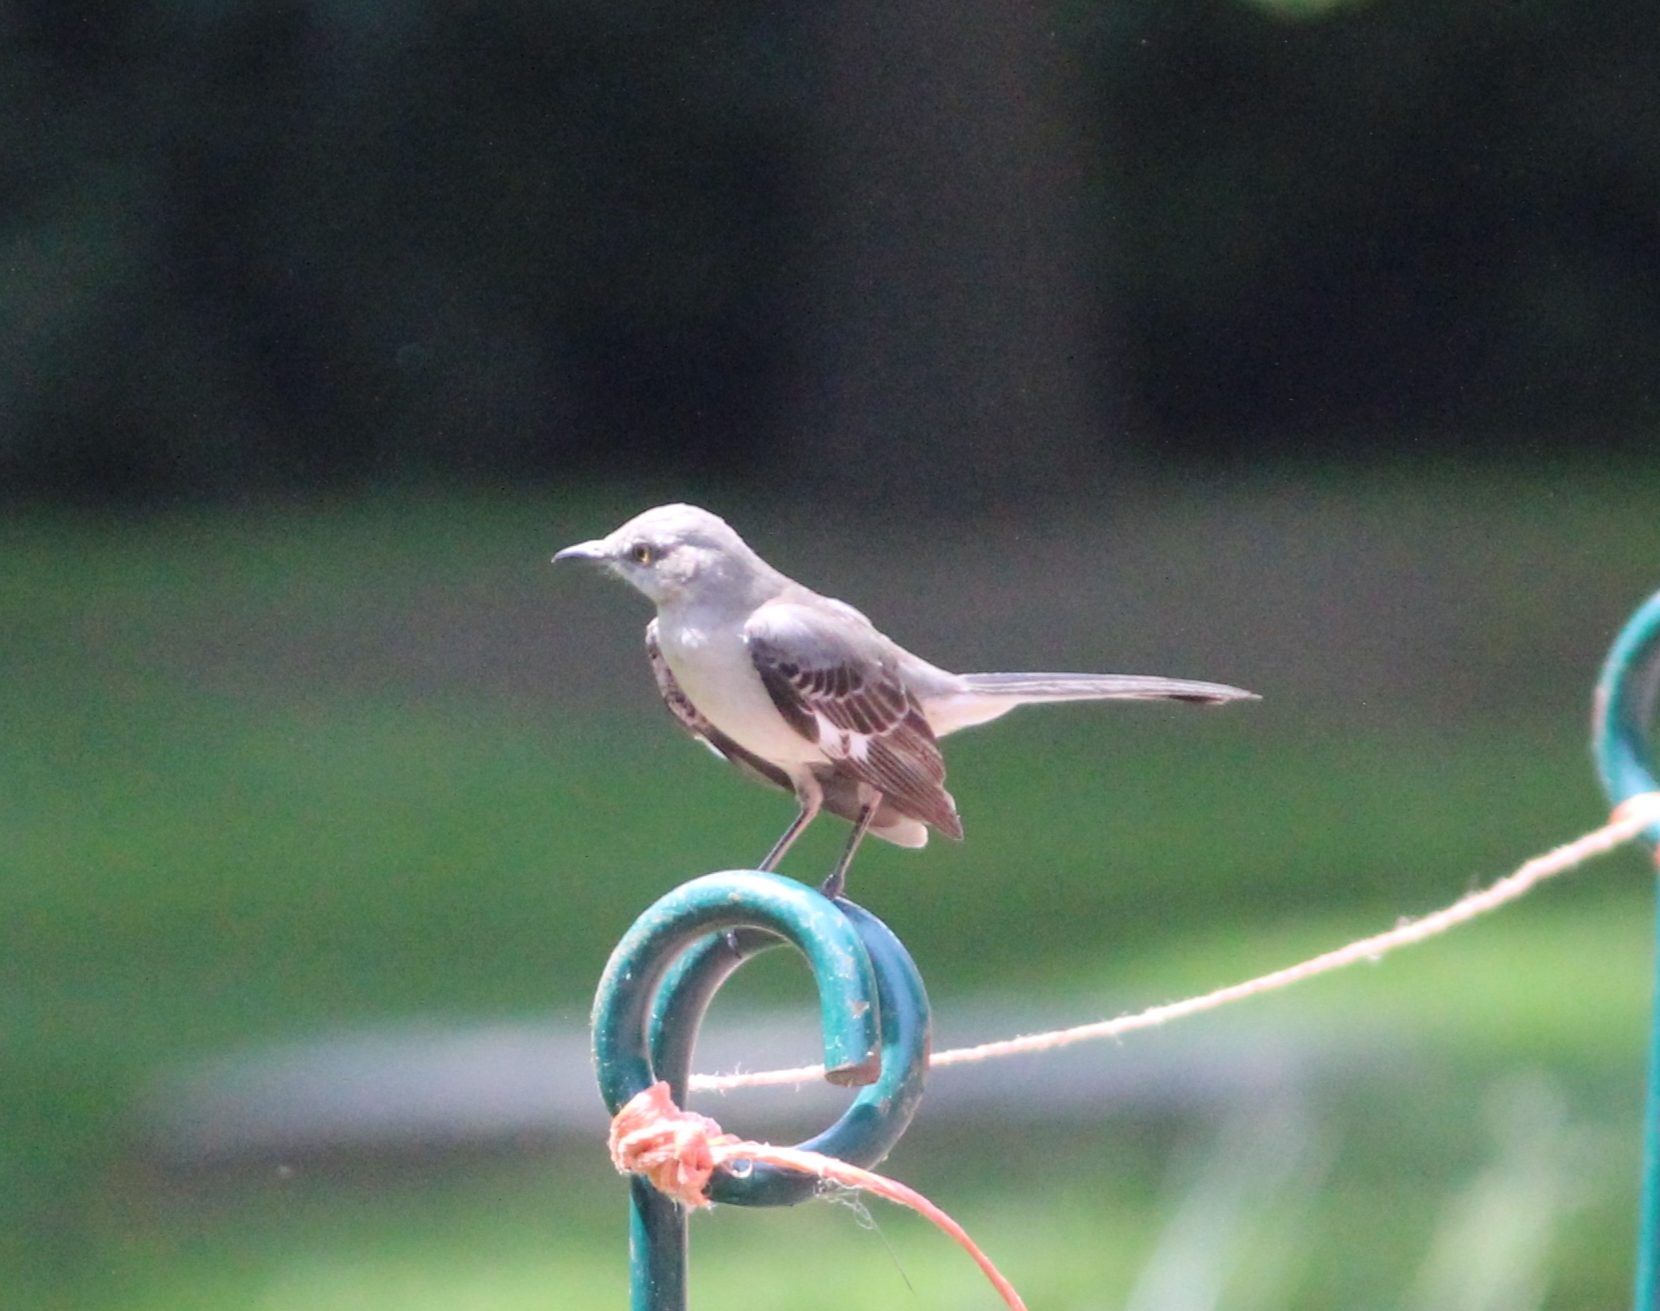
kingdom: Animalia
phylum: Chordata
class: Aves
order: Passeriformes
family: Mimidae
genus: Mimus
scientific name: Mimus polyglottos
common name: Northern mockingbird
